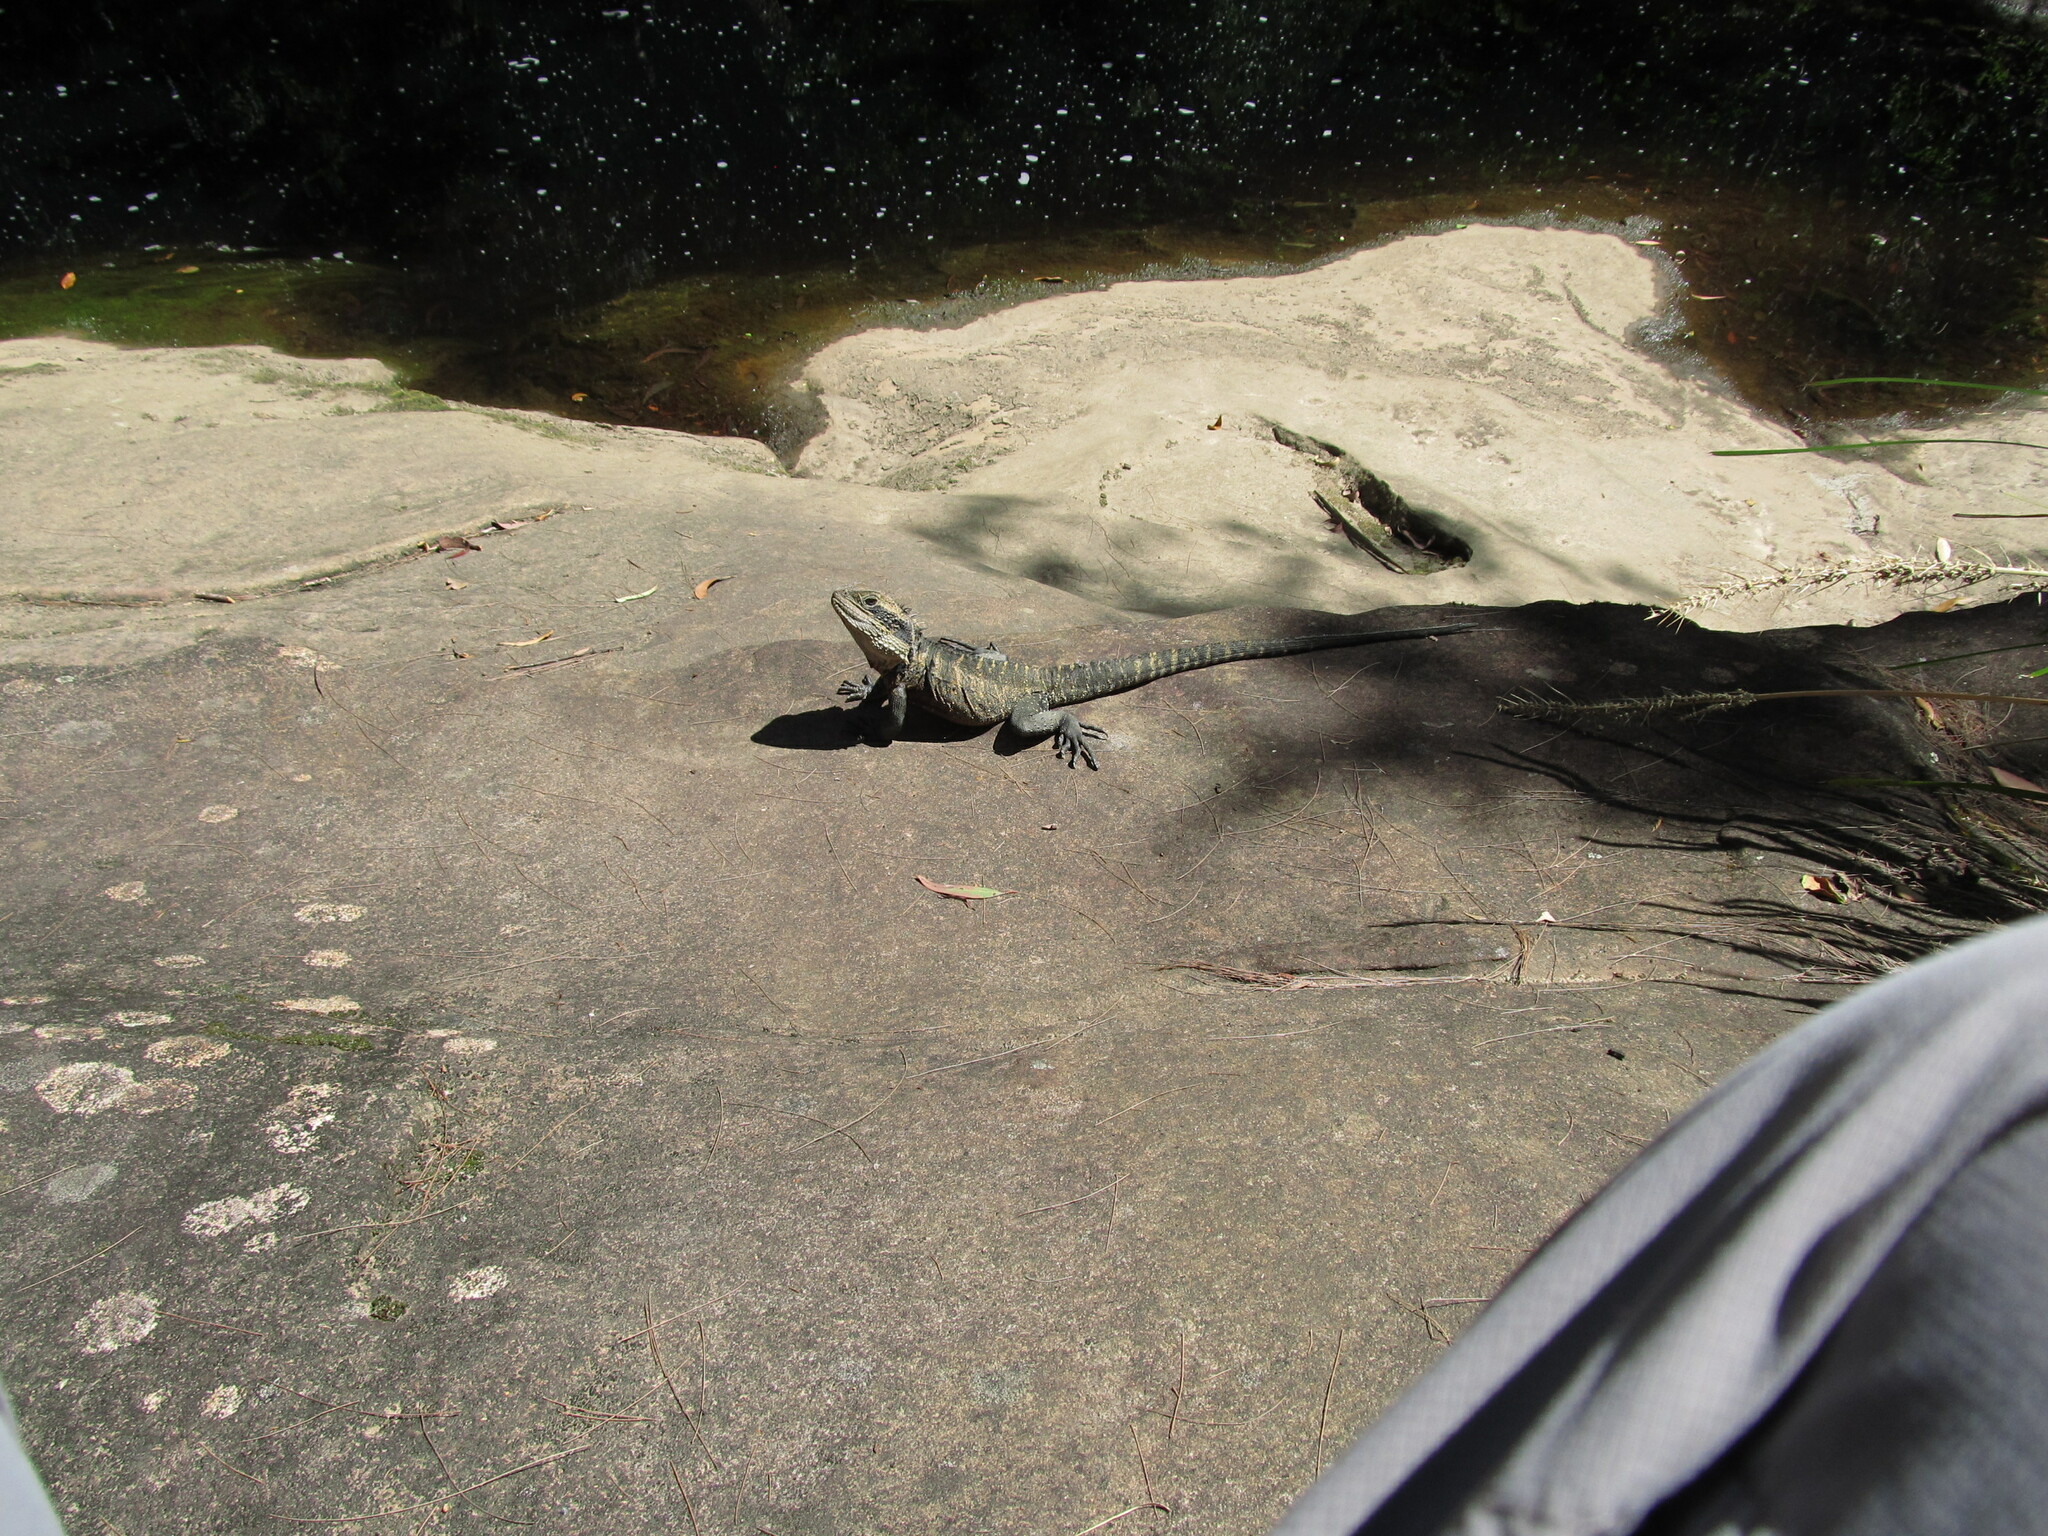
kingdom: Animalia
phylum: Chordata
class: Squamata
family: Agamidae
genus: Intellagama
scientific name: Intellagama lesueurii
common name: Eastern water dragon
